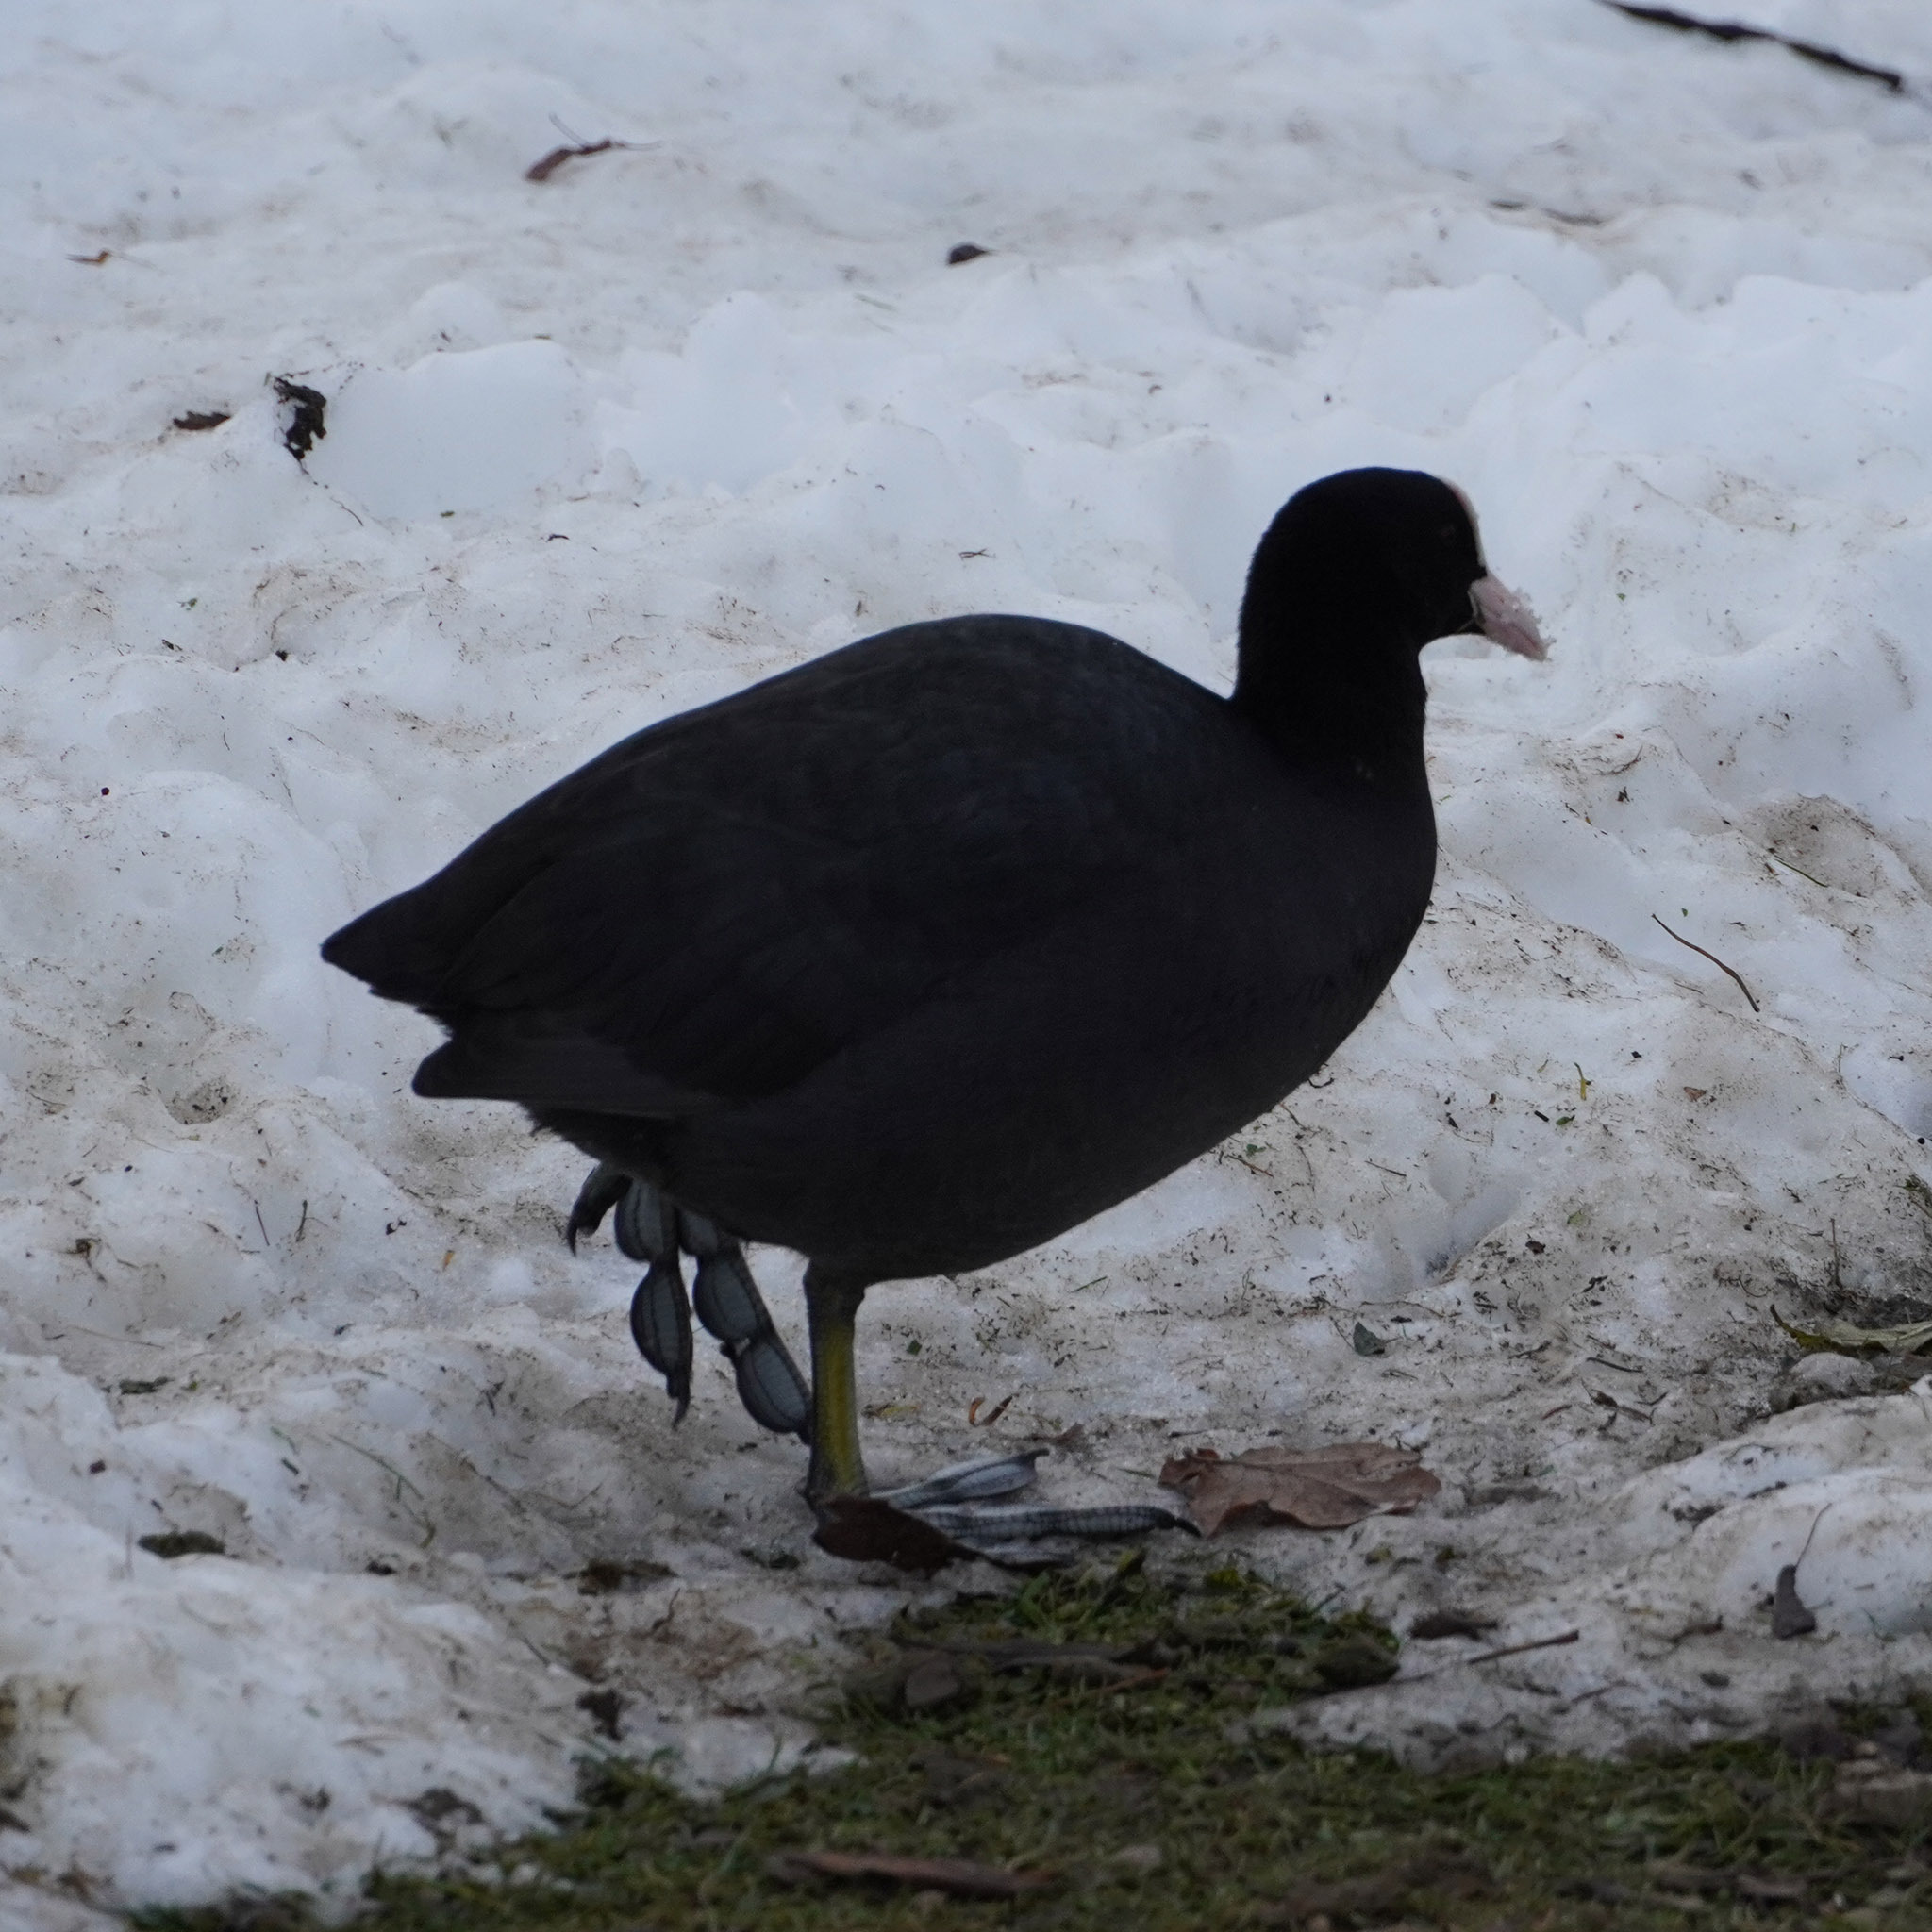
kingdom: Animalia
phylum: Chordata
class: Aves
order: Gruiformes
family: Rallidae
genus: Fulica
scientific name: Fulica atra
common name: Eurasian coot
